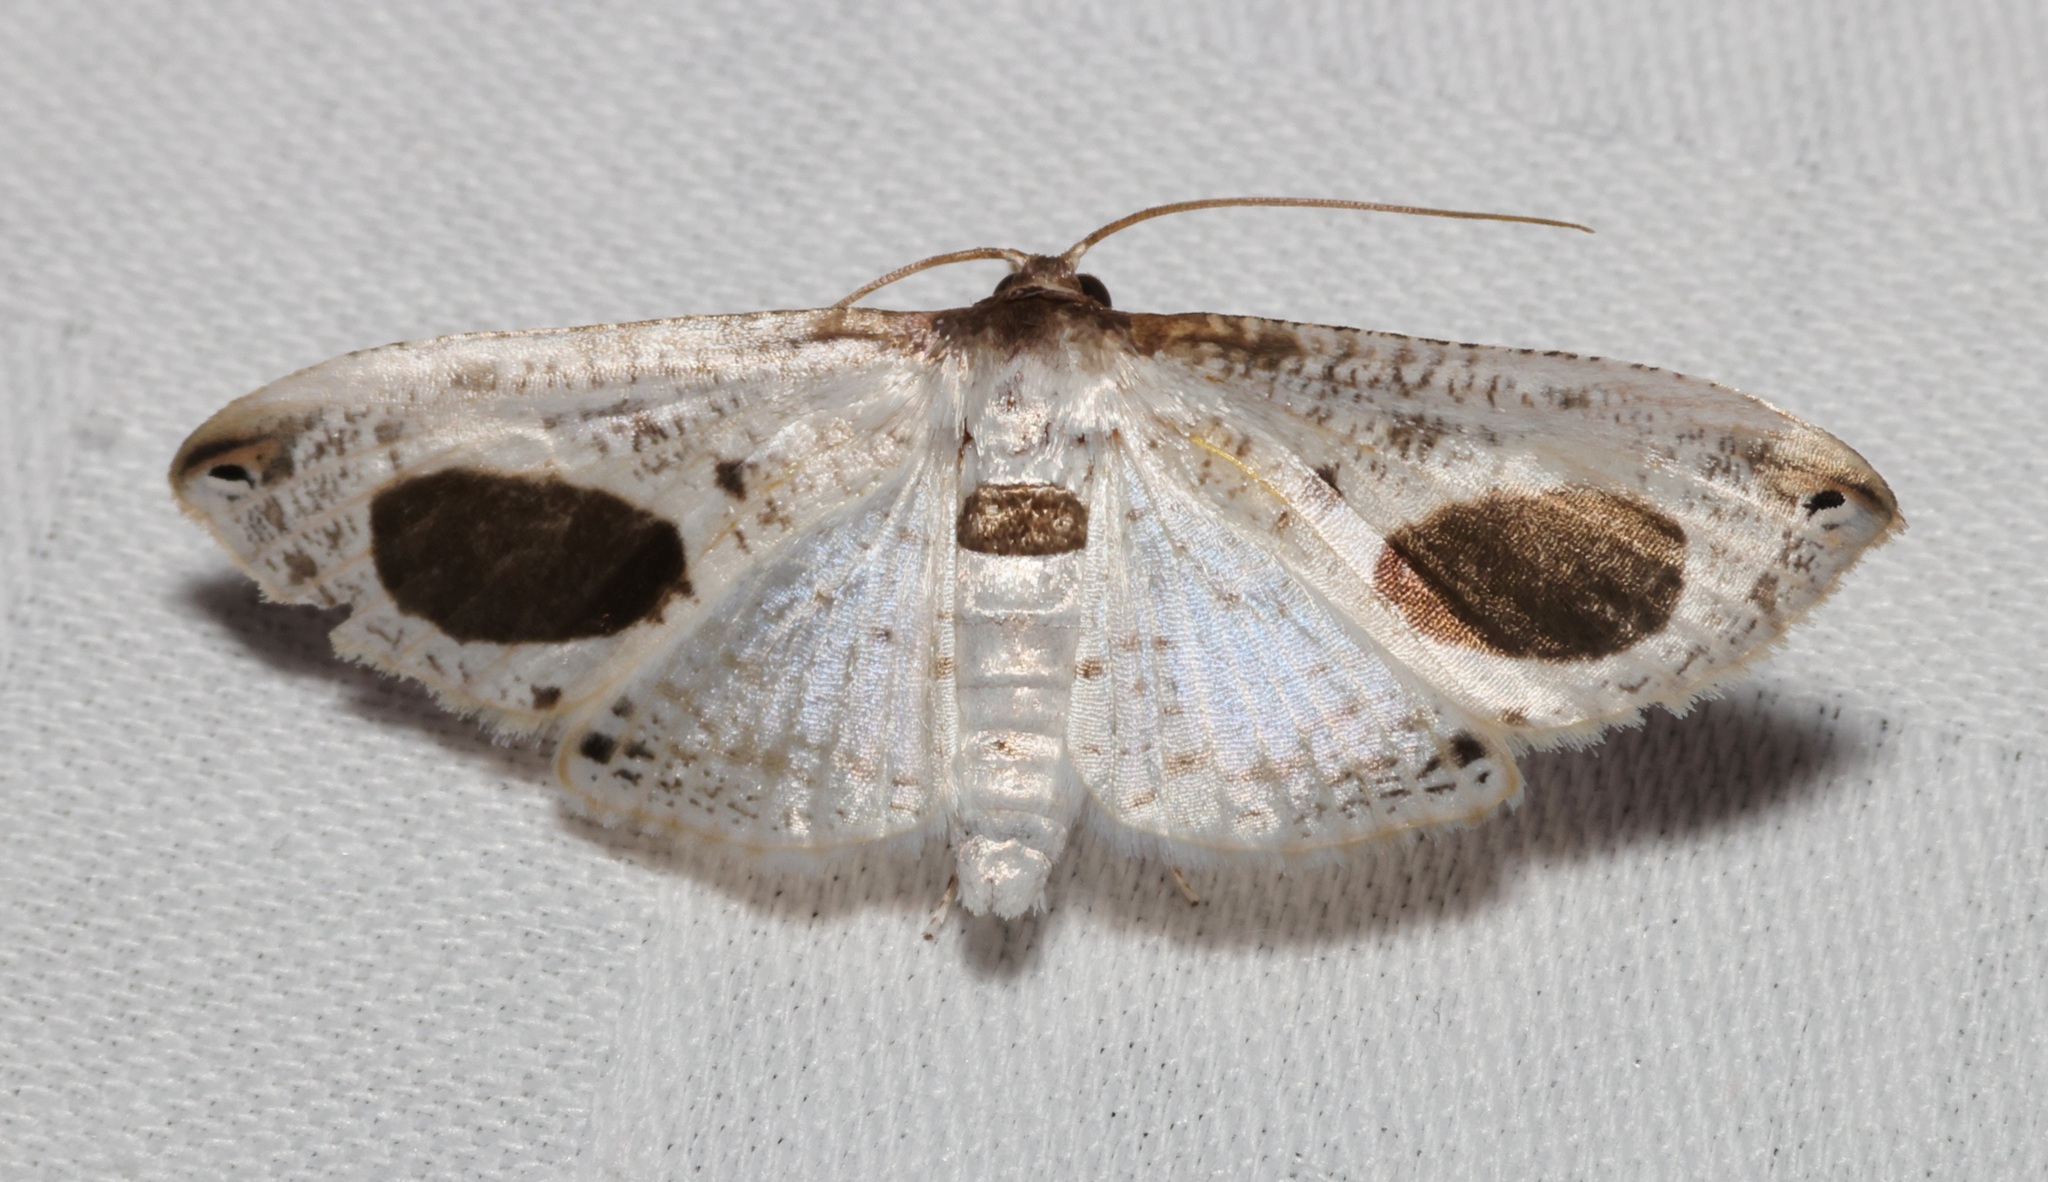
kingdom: Animalia
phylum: Arthropoda
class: Insecta
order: Lepidoptera
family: Thyrididae
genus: Calindoea
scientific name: Calindoea
